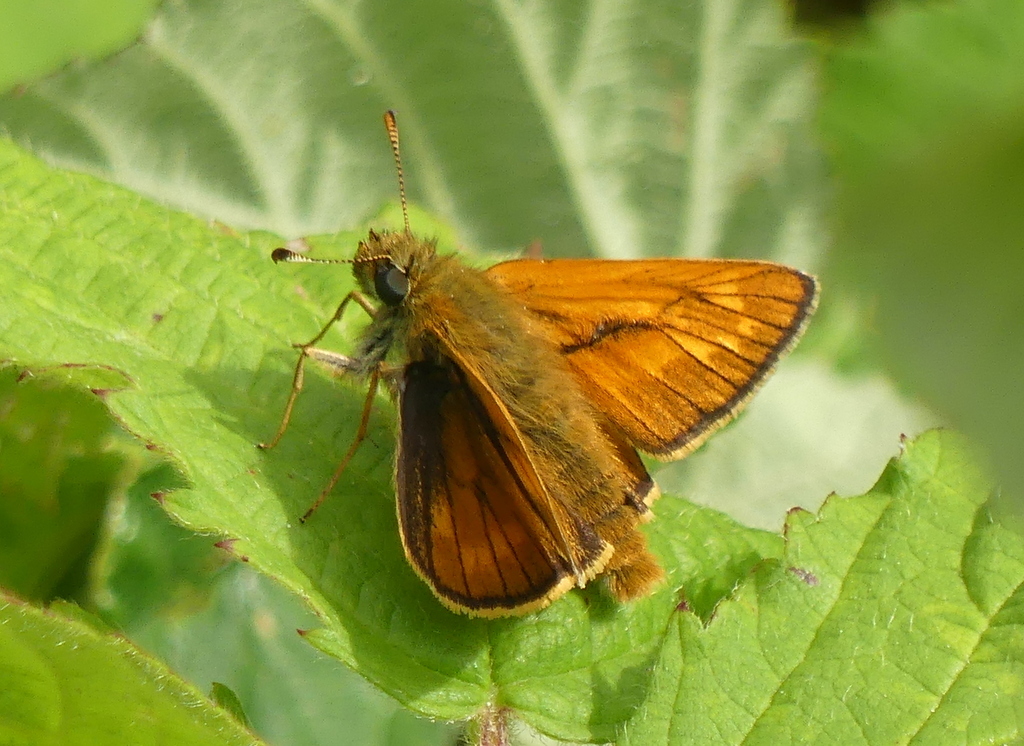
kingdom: Animalia
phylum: Arthropoda
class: Insecta
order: Lepidoptera
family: Hesperiidae
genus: Ochlodes
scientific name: Ochlodes venata
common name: Large skipper
